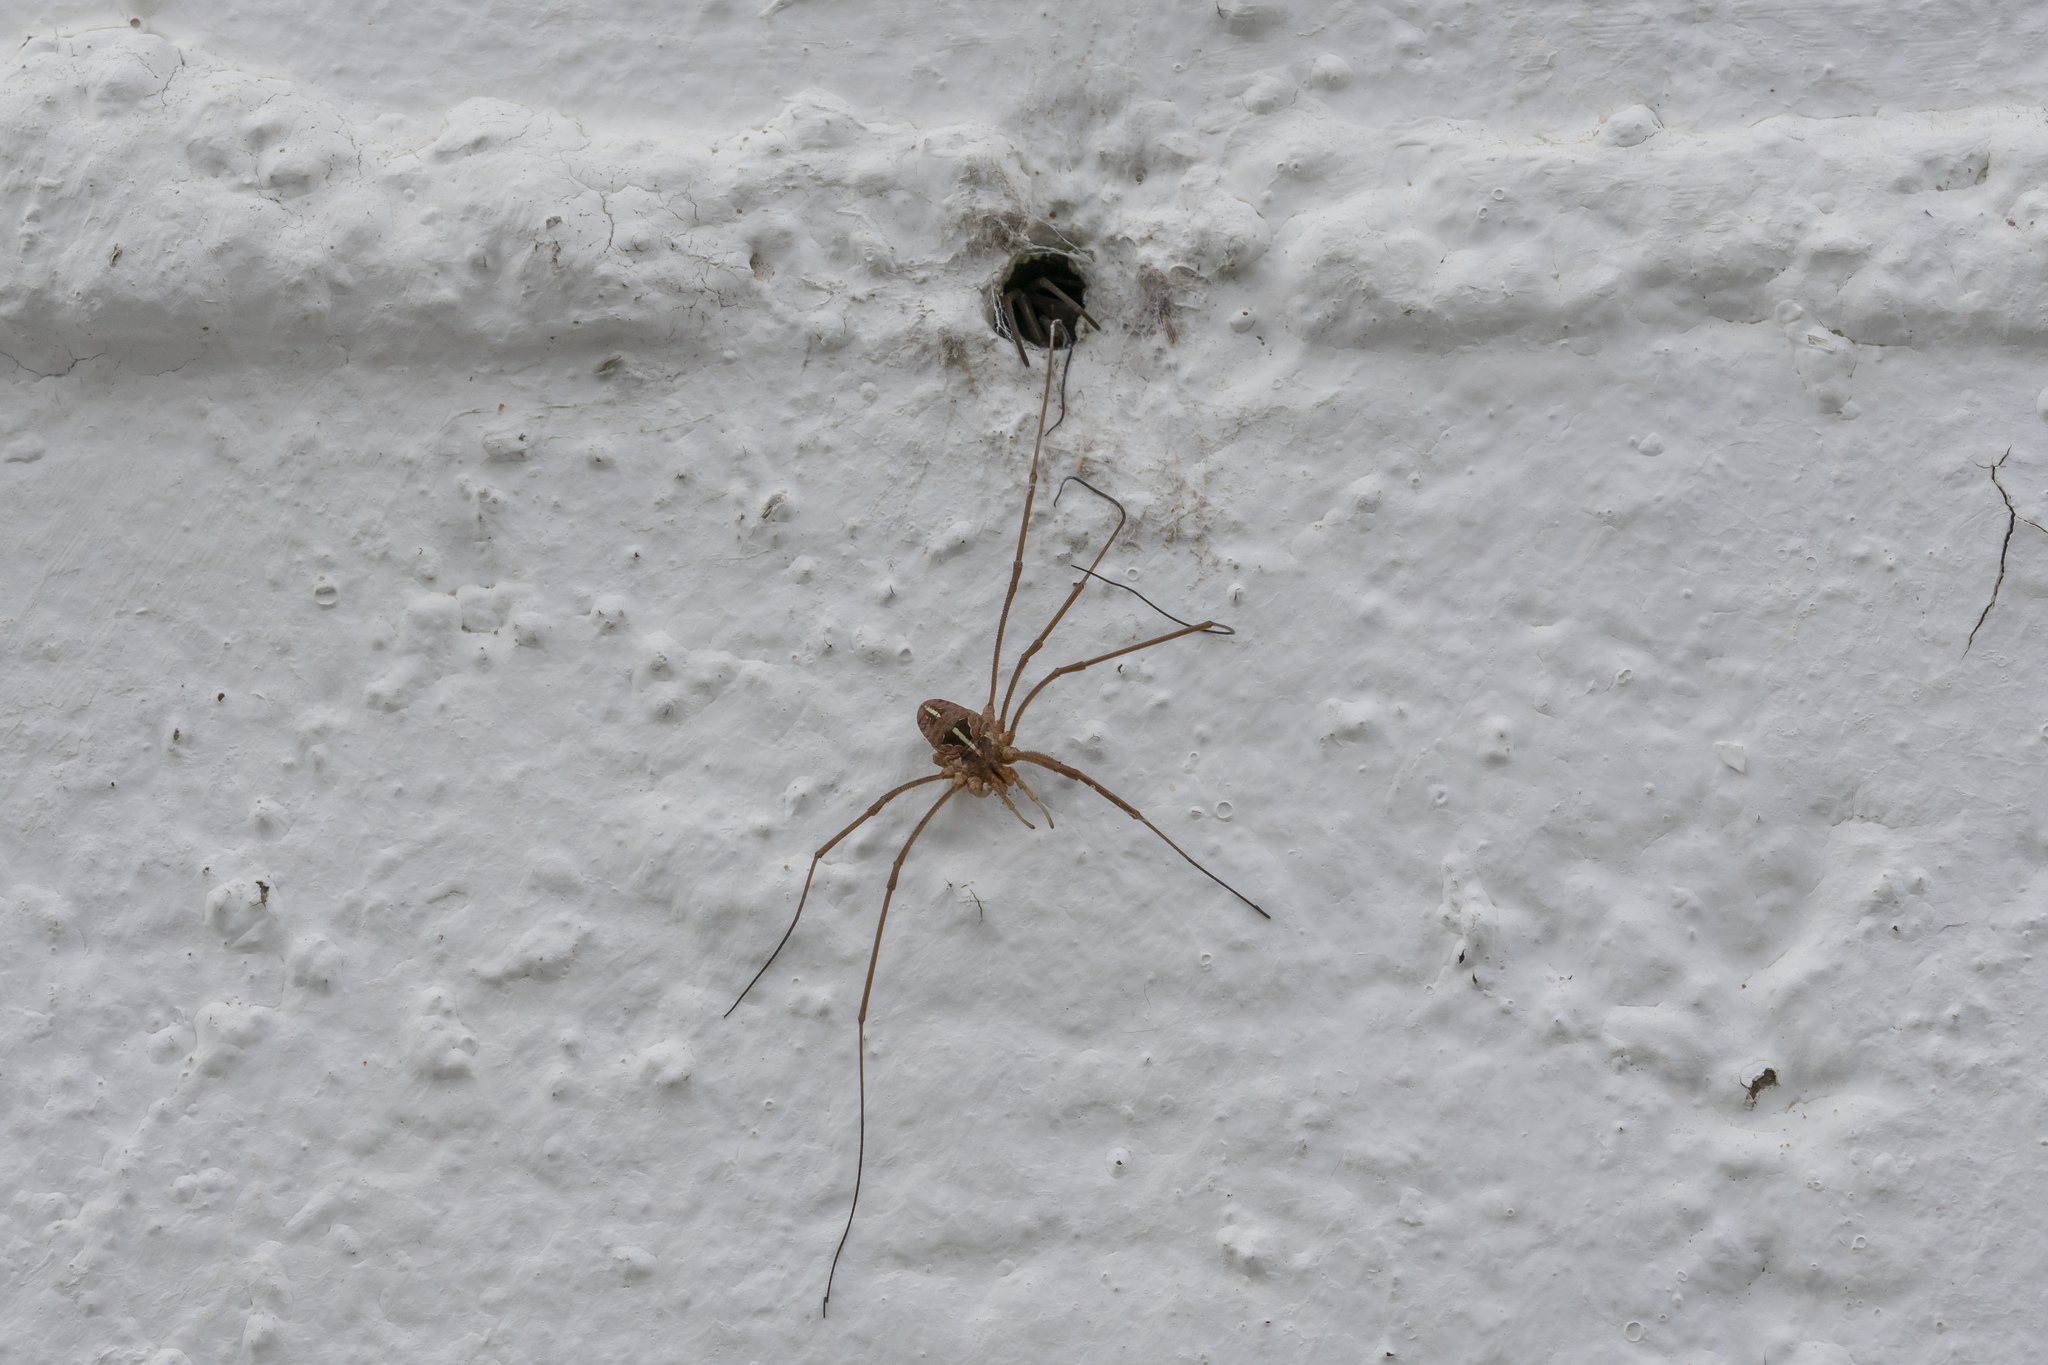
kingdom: Animalia
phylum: Arthropoda
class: Arachnida
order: Opiliones
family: Phalangiidae
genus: Metaphalangium
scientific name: Metaphalangium cirtanum
